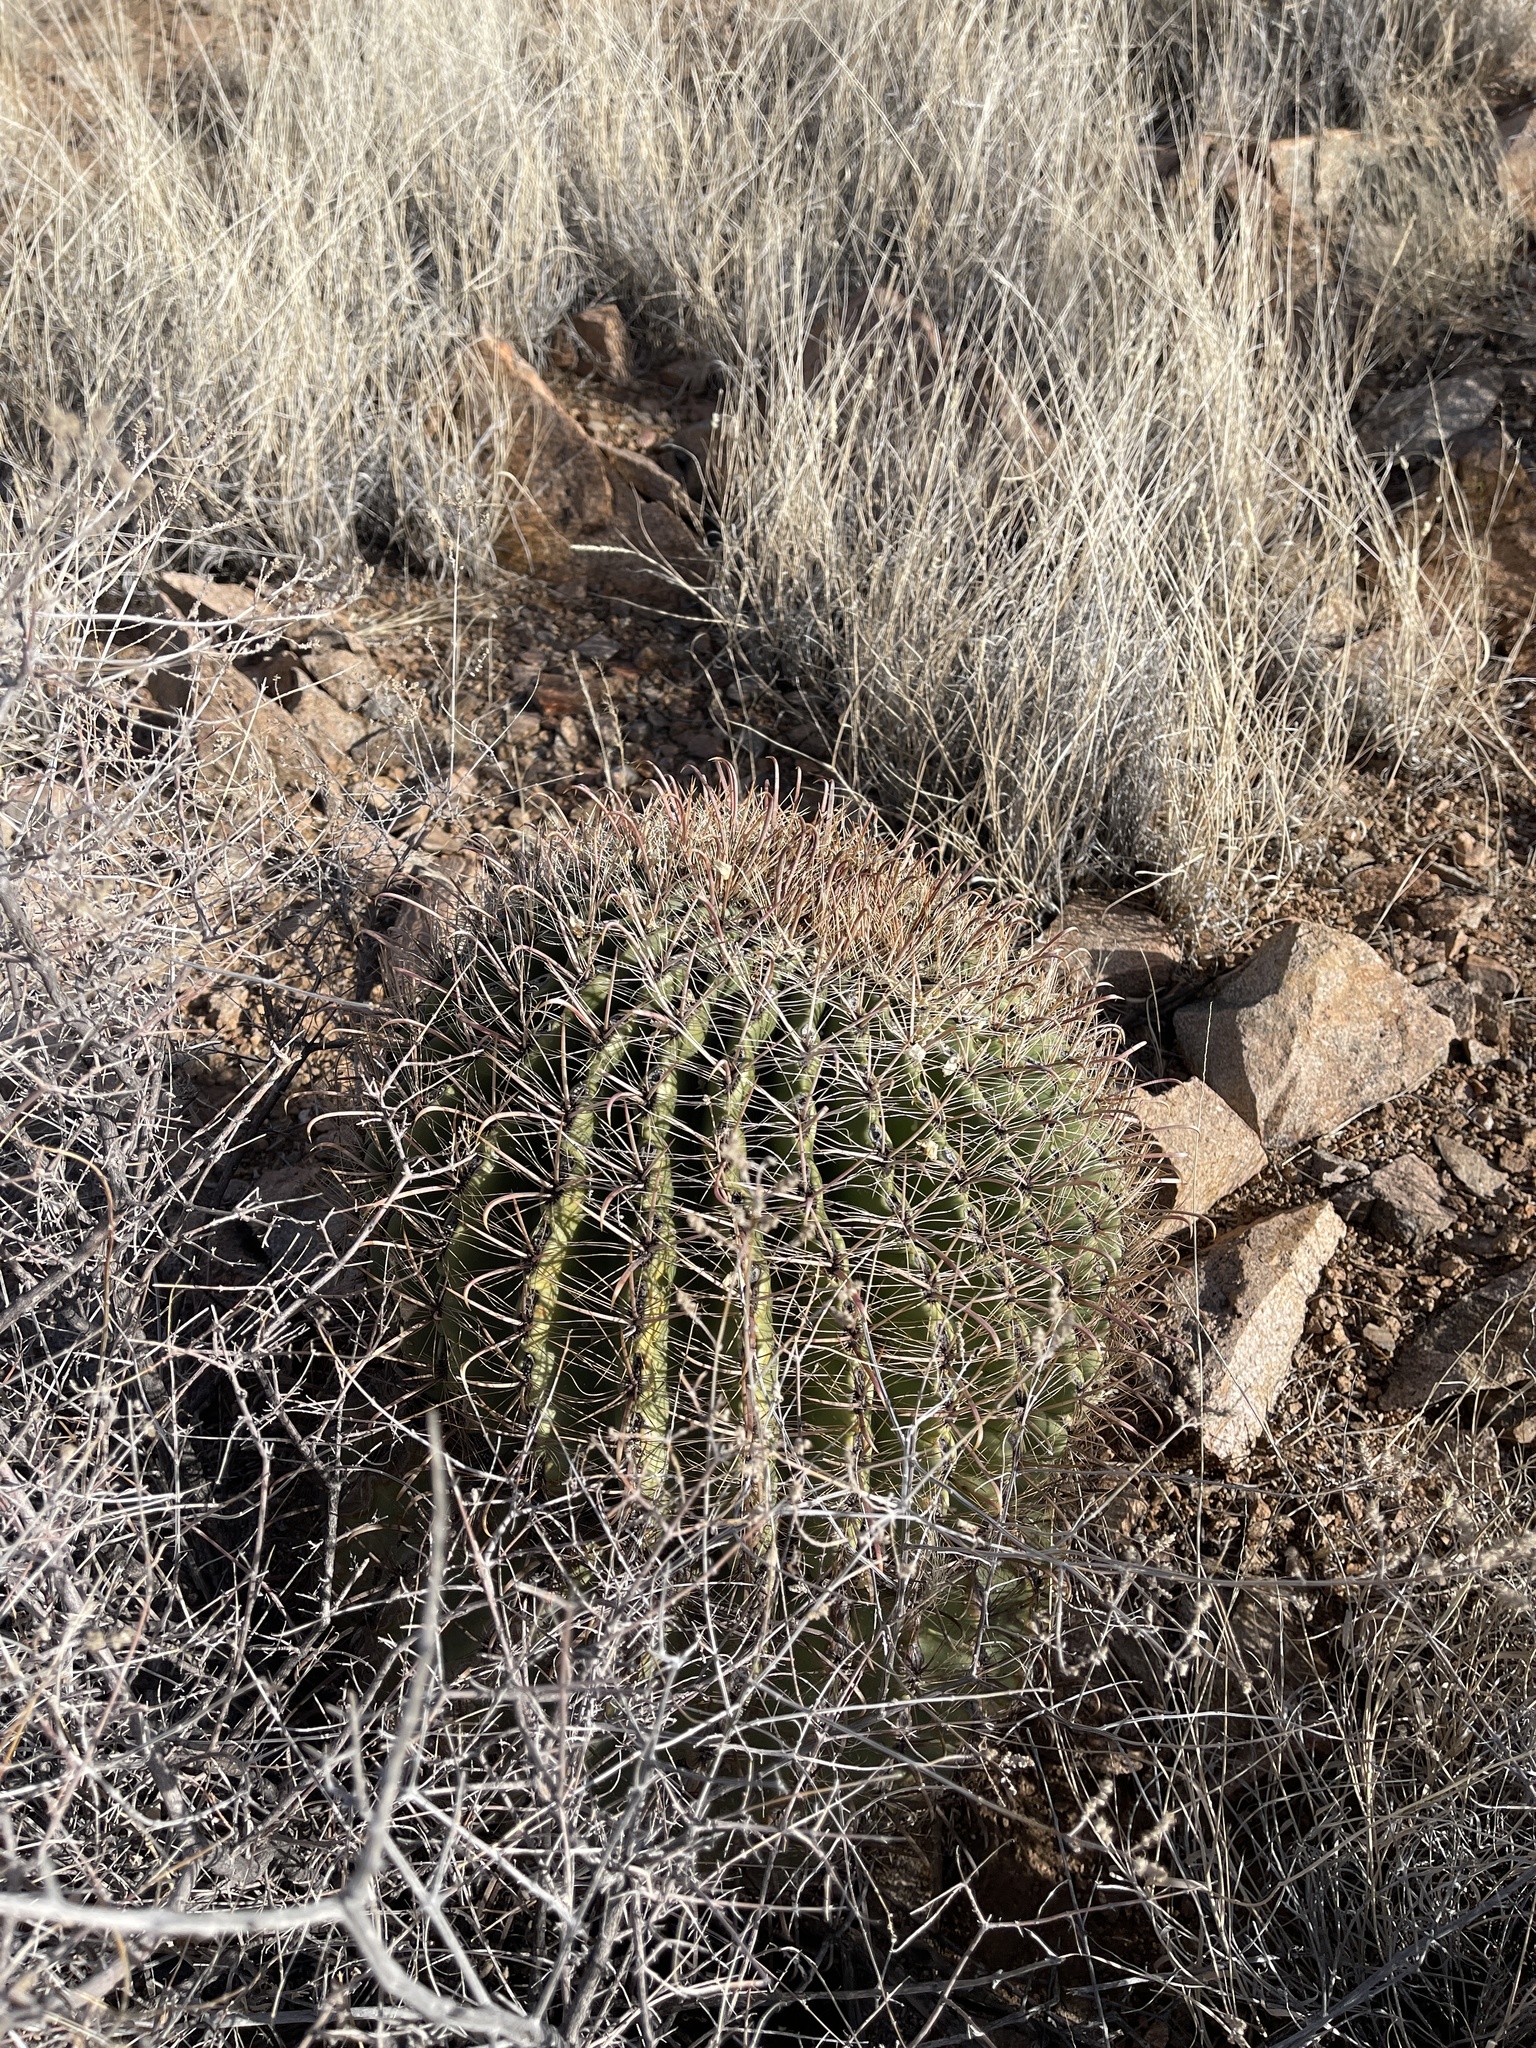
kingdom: Plantae
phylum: Tracheophyta
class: Magnoliopsida
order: Caryophyllales
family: Cactaceae
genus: Ferocactus
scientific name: Ferocactus wislizeni
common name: Candy barrel cactus
